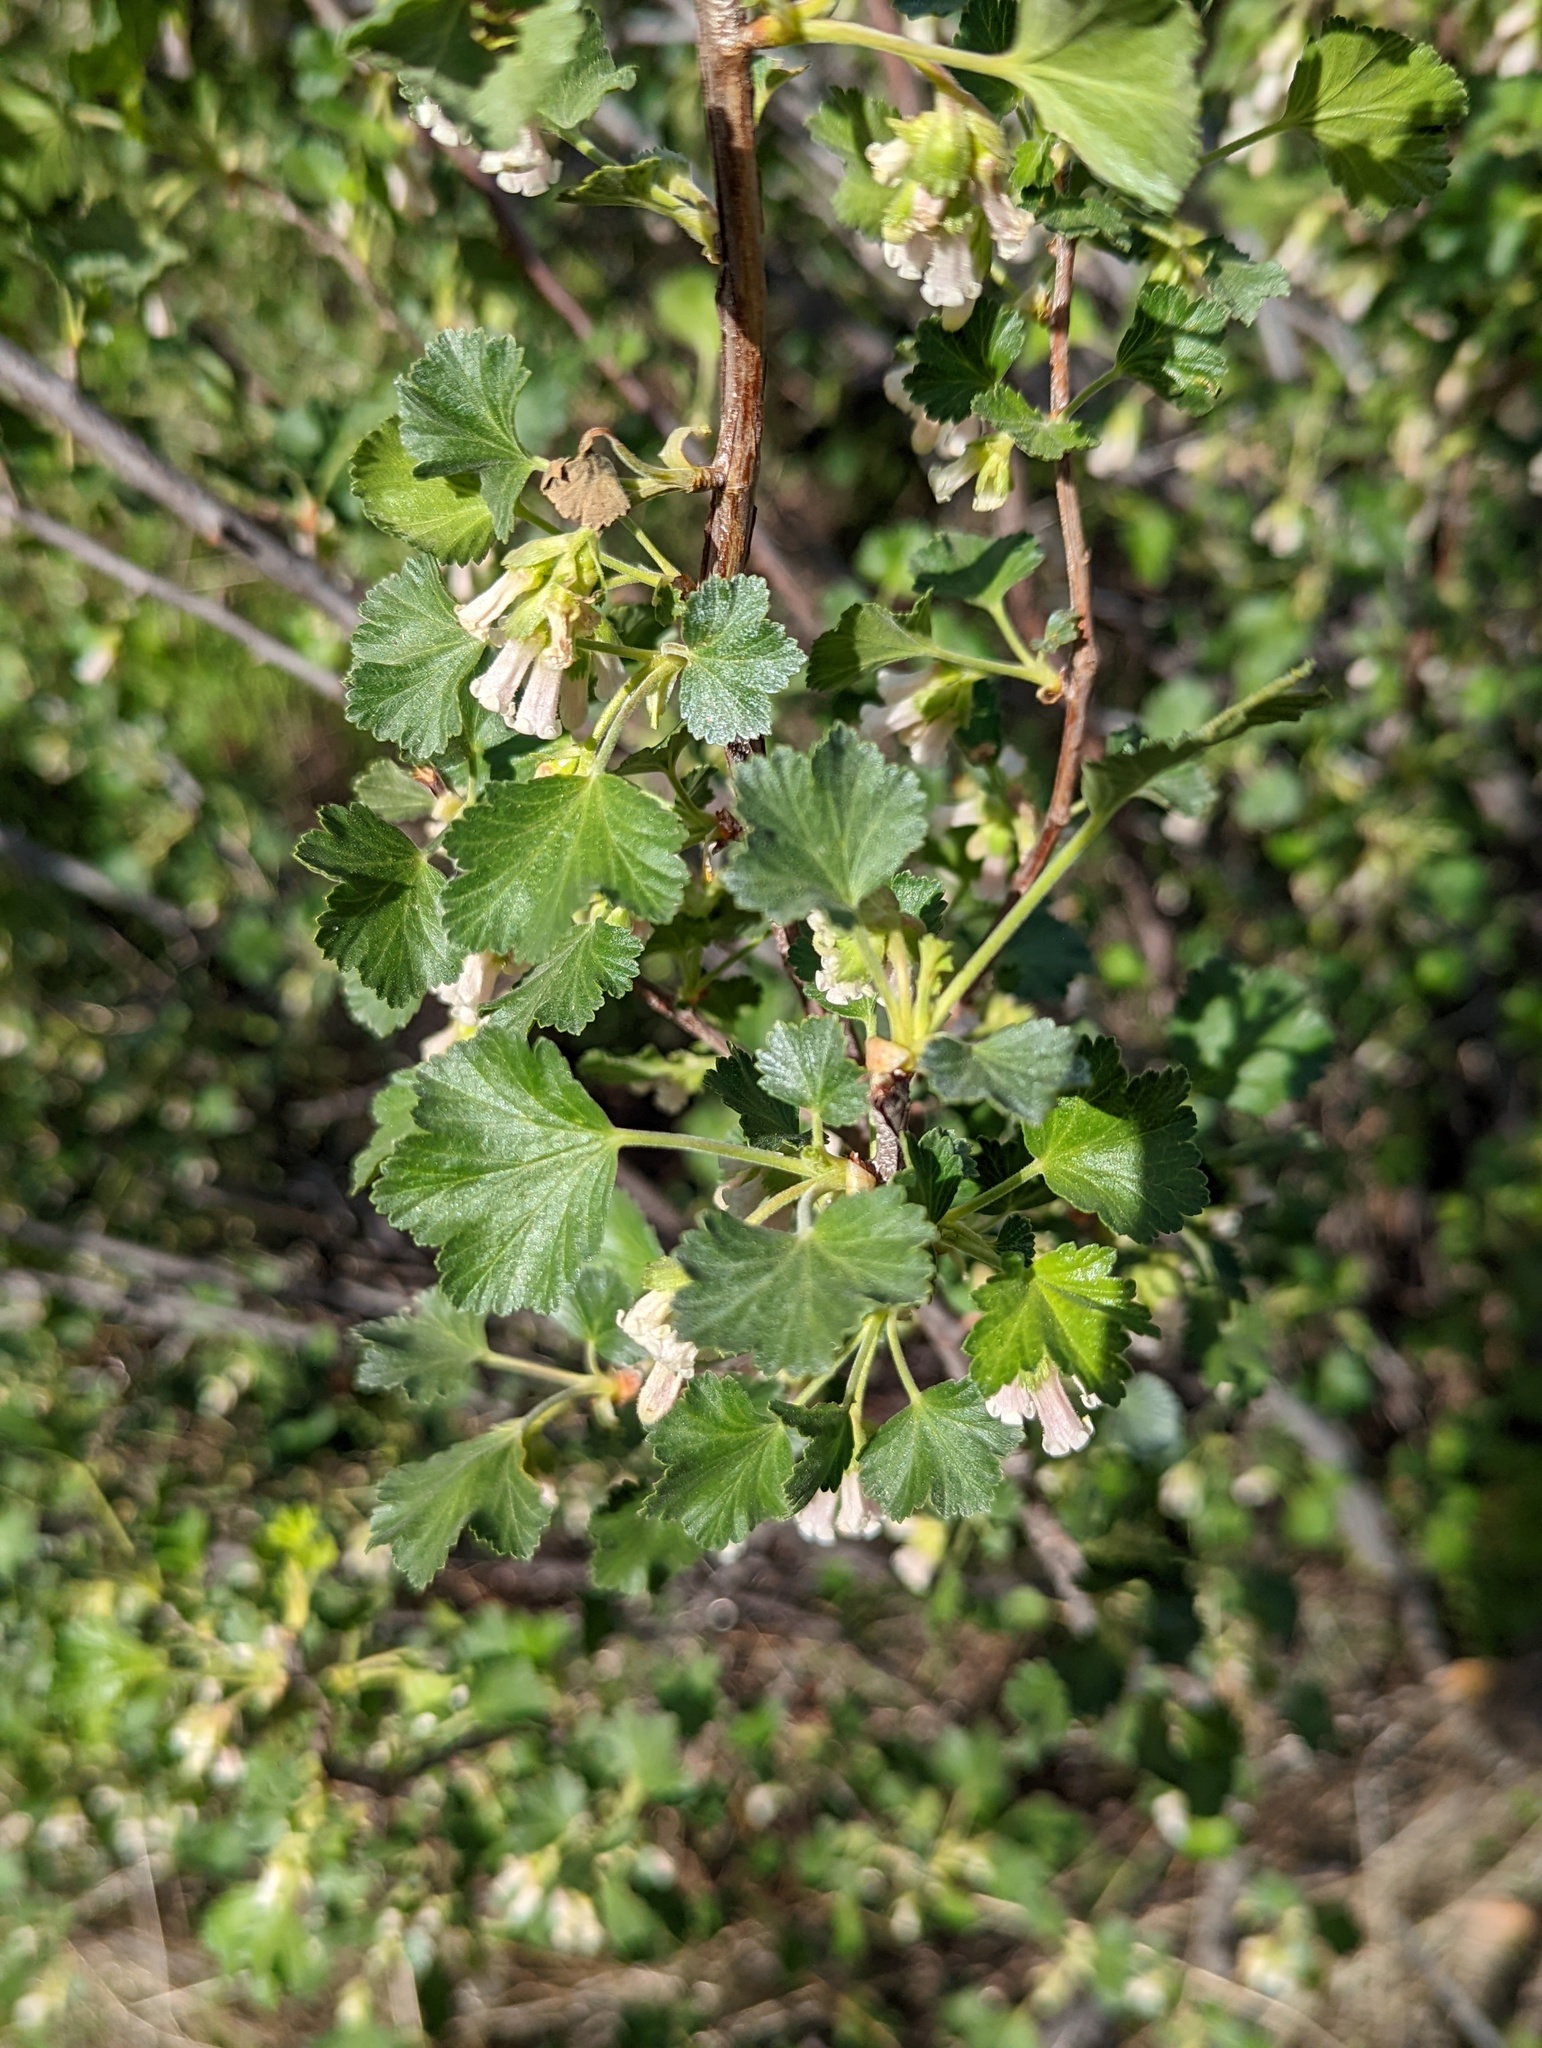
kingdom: Plantae
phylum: Tracheophyta
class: Magnoliopsida
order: Saxifragales
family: Grossulariaceae
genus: Ribes
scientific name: Ribes cereum
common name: Wax currant
